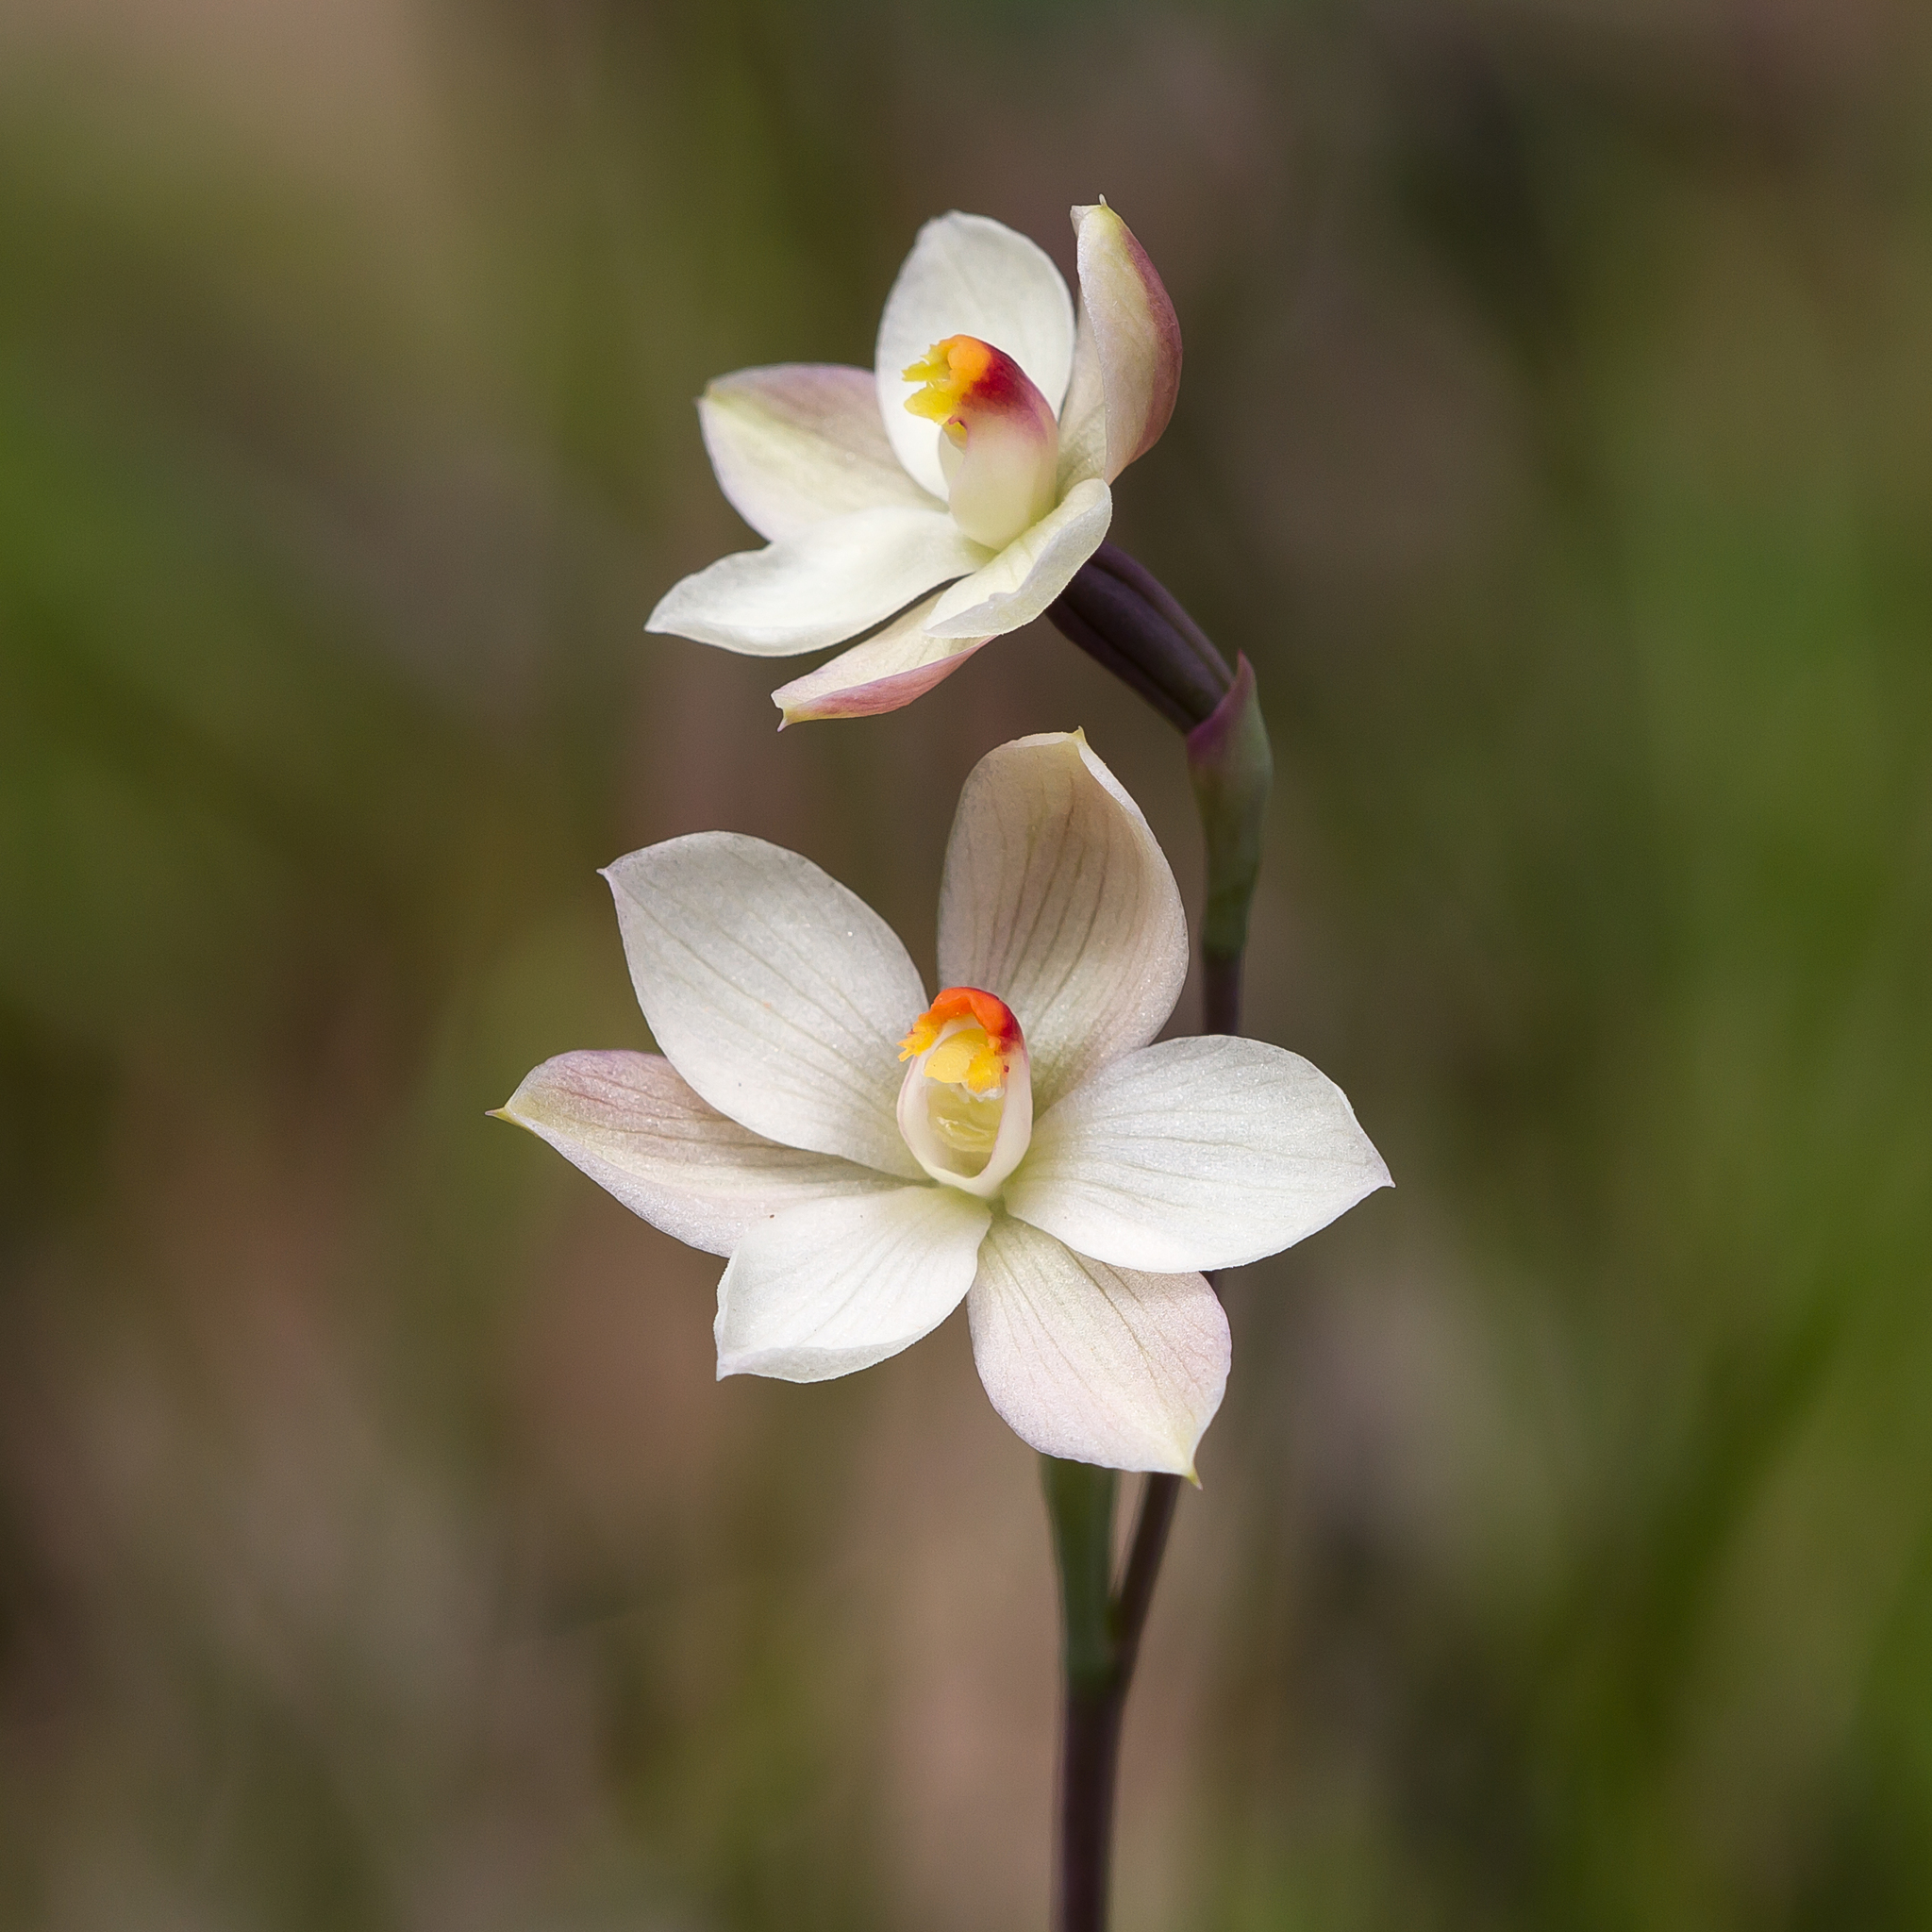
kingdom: Plantae
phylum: Tracheophyta
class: Liliopsida
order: Asparagales
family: Orchidaceae
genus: Thelymitra
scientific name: Thelymitra rubra
